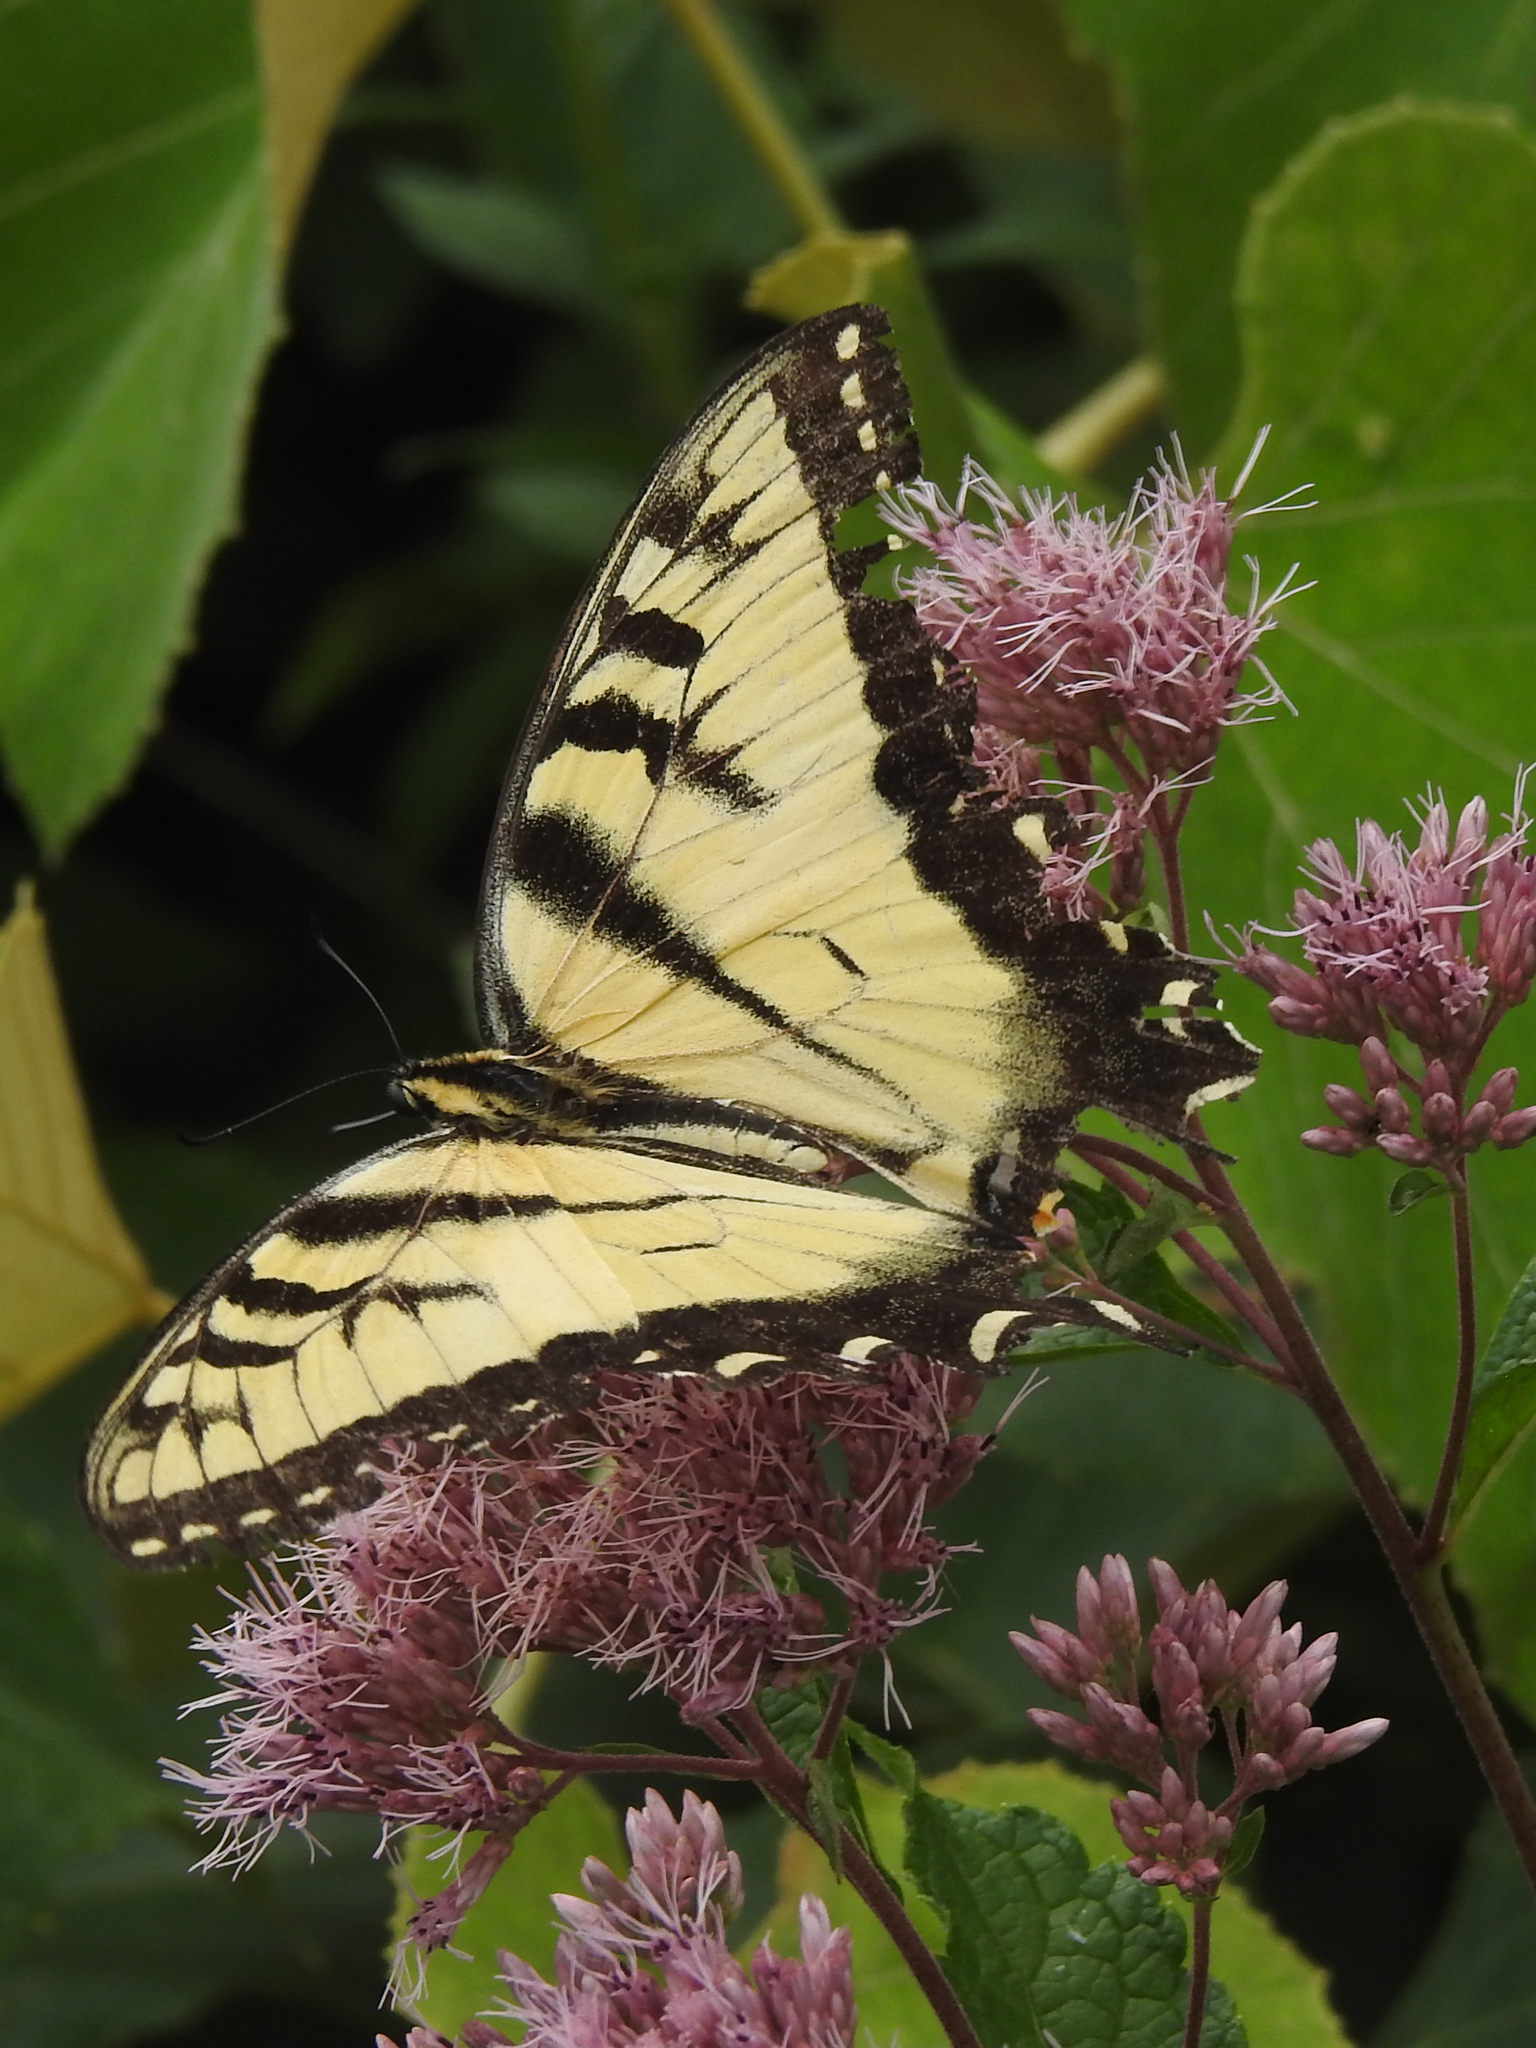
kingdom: Animalia
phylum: Arthropoda
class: Insecta
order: Lepidoptera
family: Papilionidae
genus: Papilio
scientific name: Papilio glaucus
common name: Tiger swallowtail
